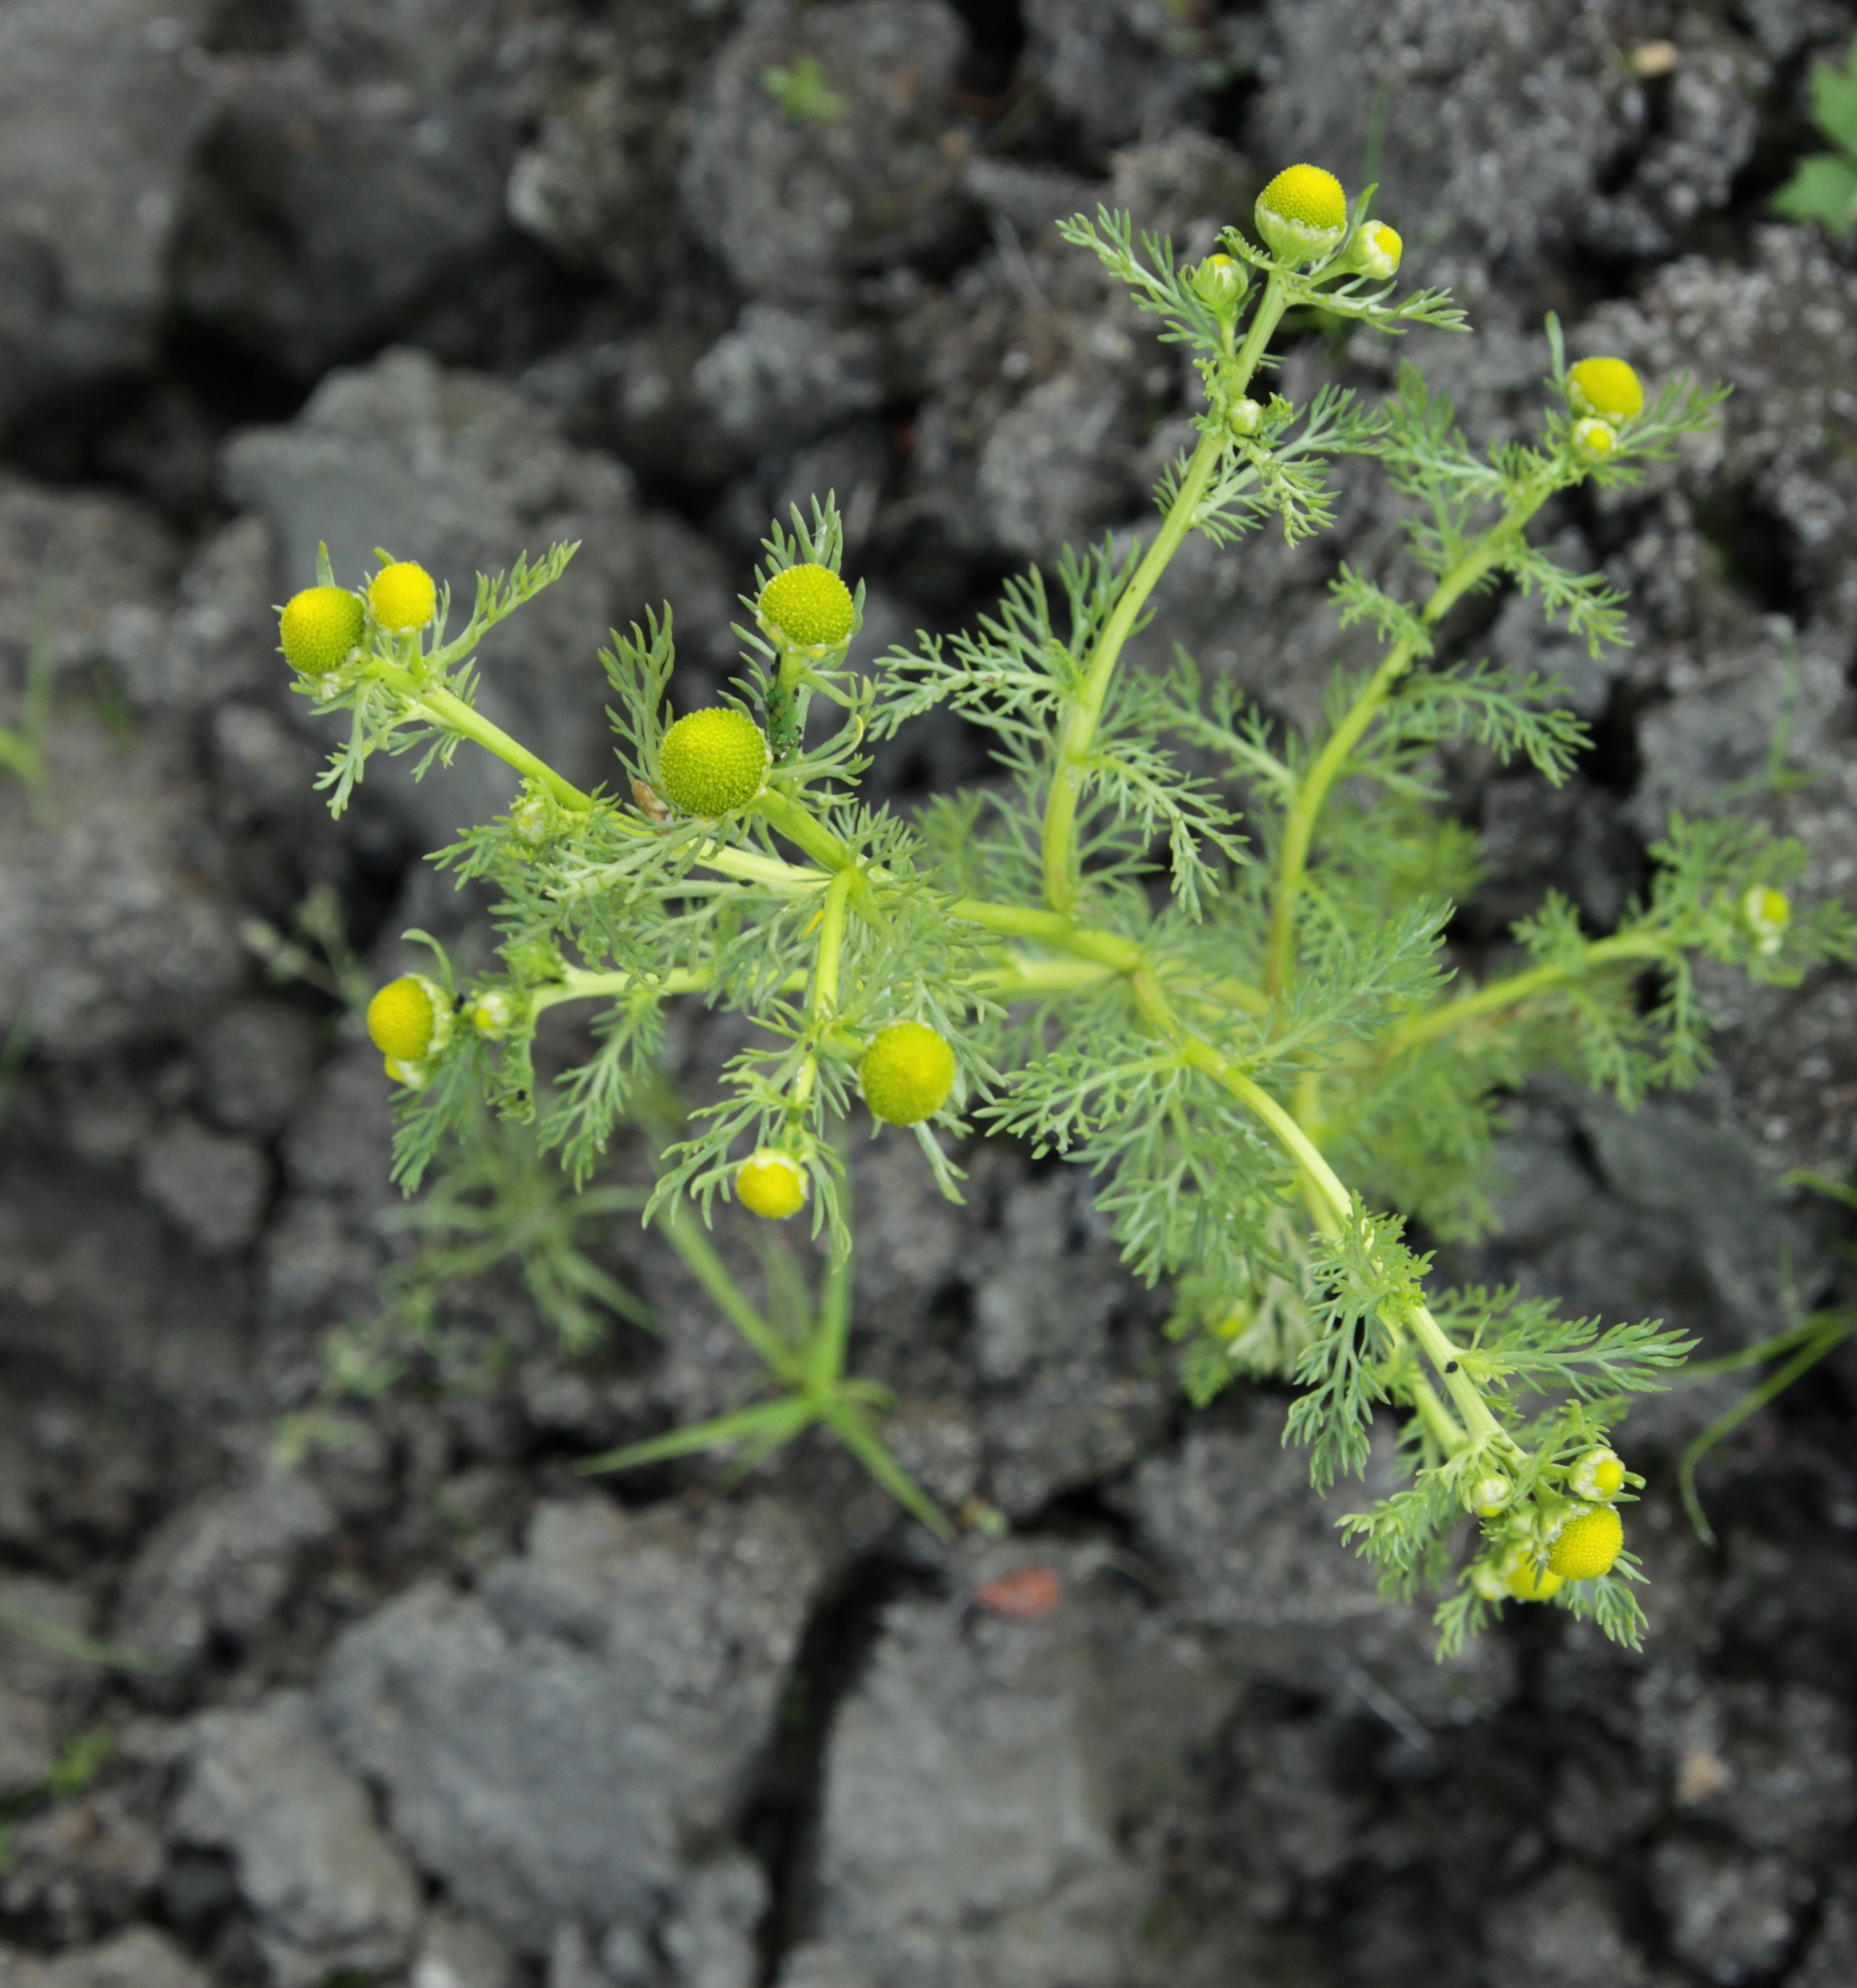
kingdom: Plantae
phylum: Tracheophyta
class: Magnoliopsida
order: Asterales
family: Asteraceae
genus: Matricaria
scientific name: Matricaria discoidea
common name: Disc mayweed
